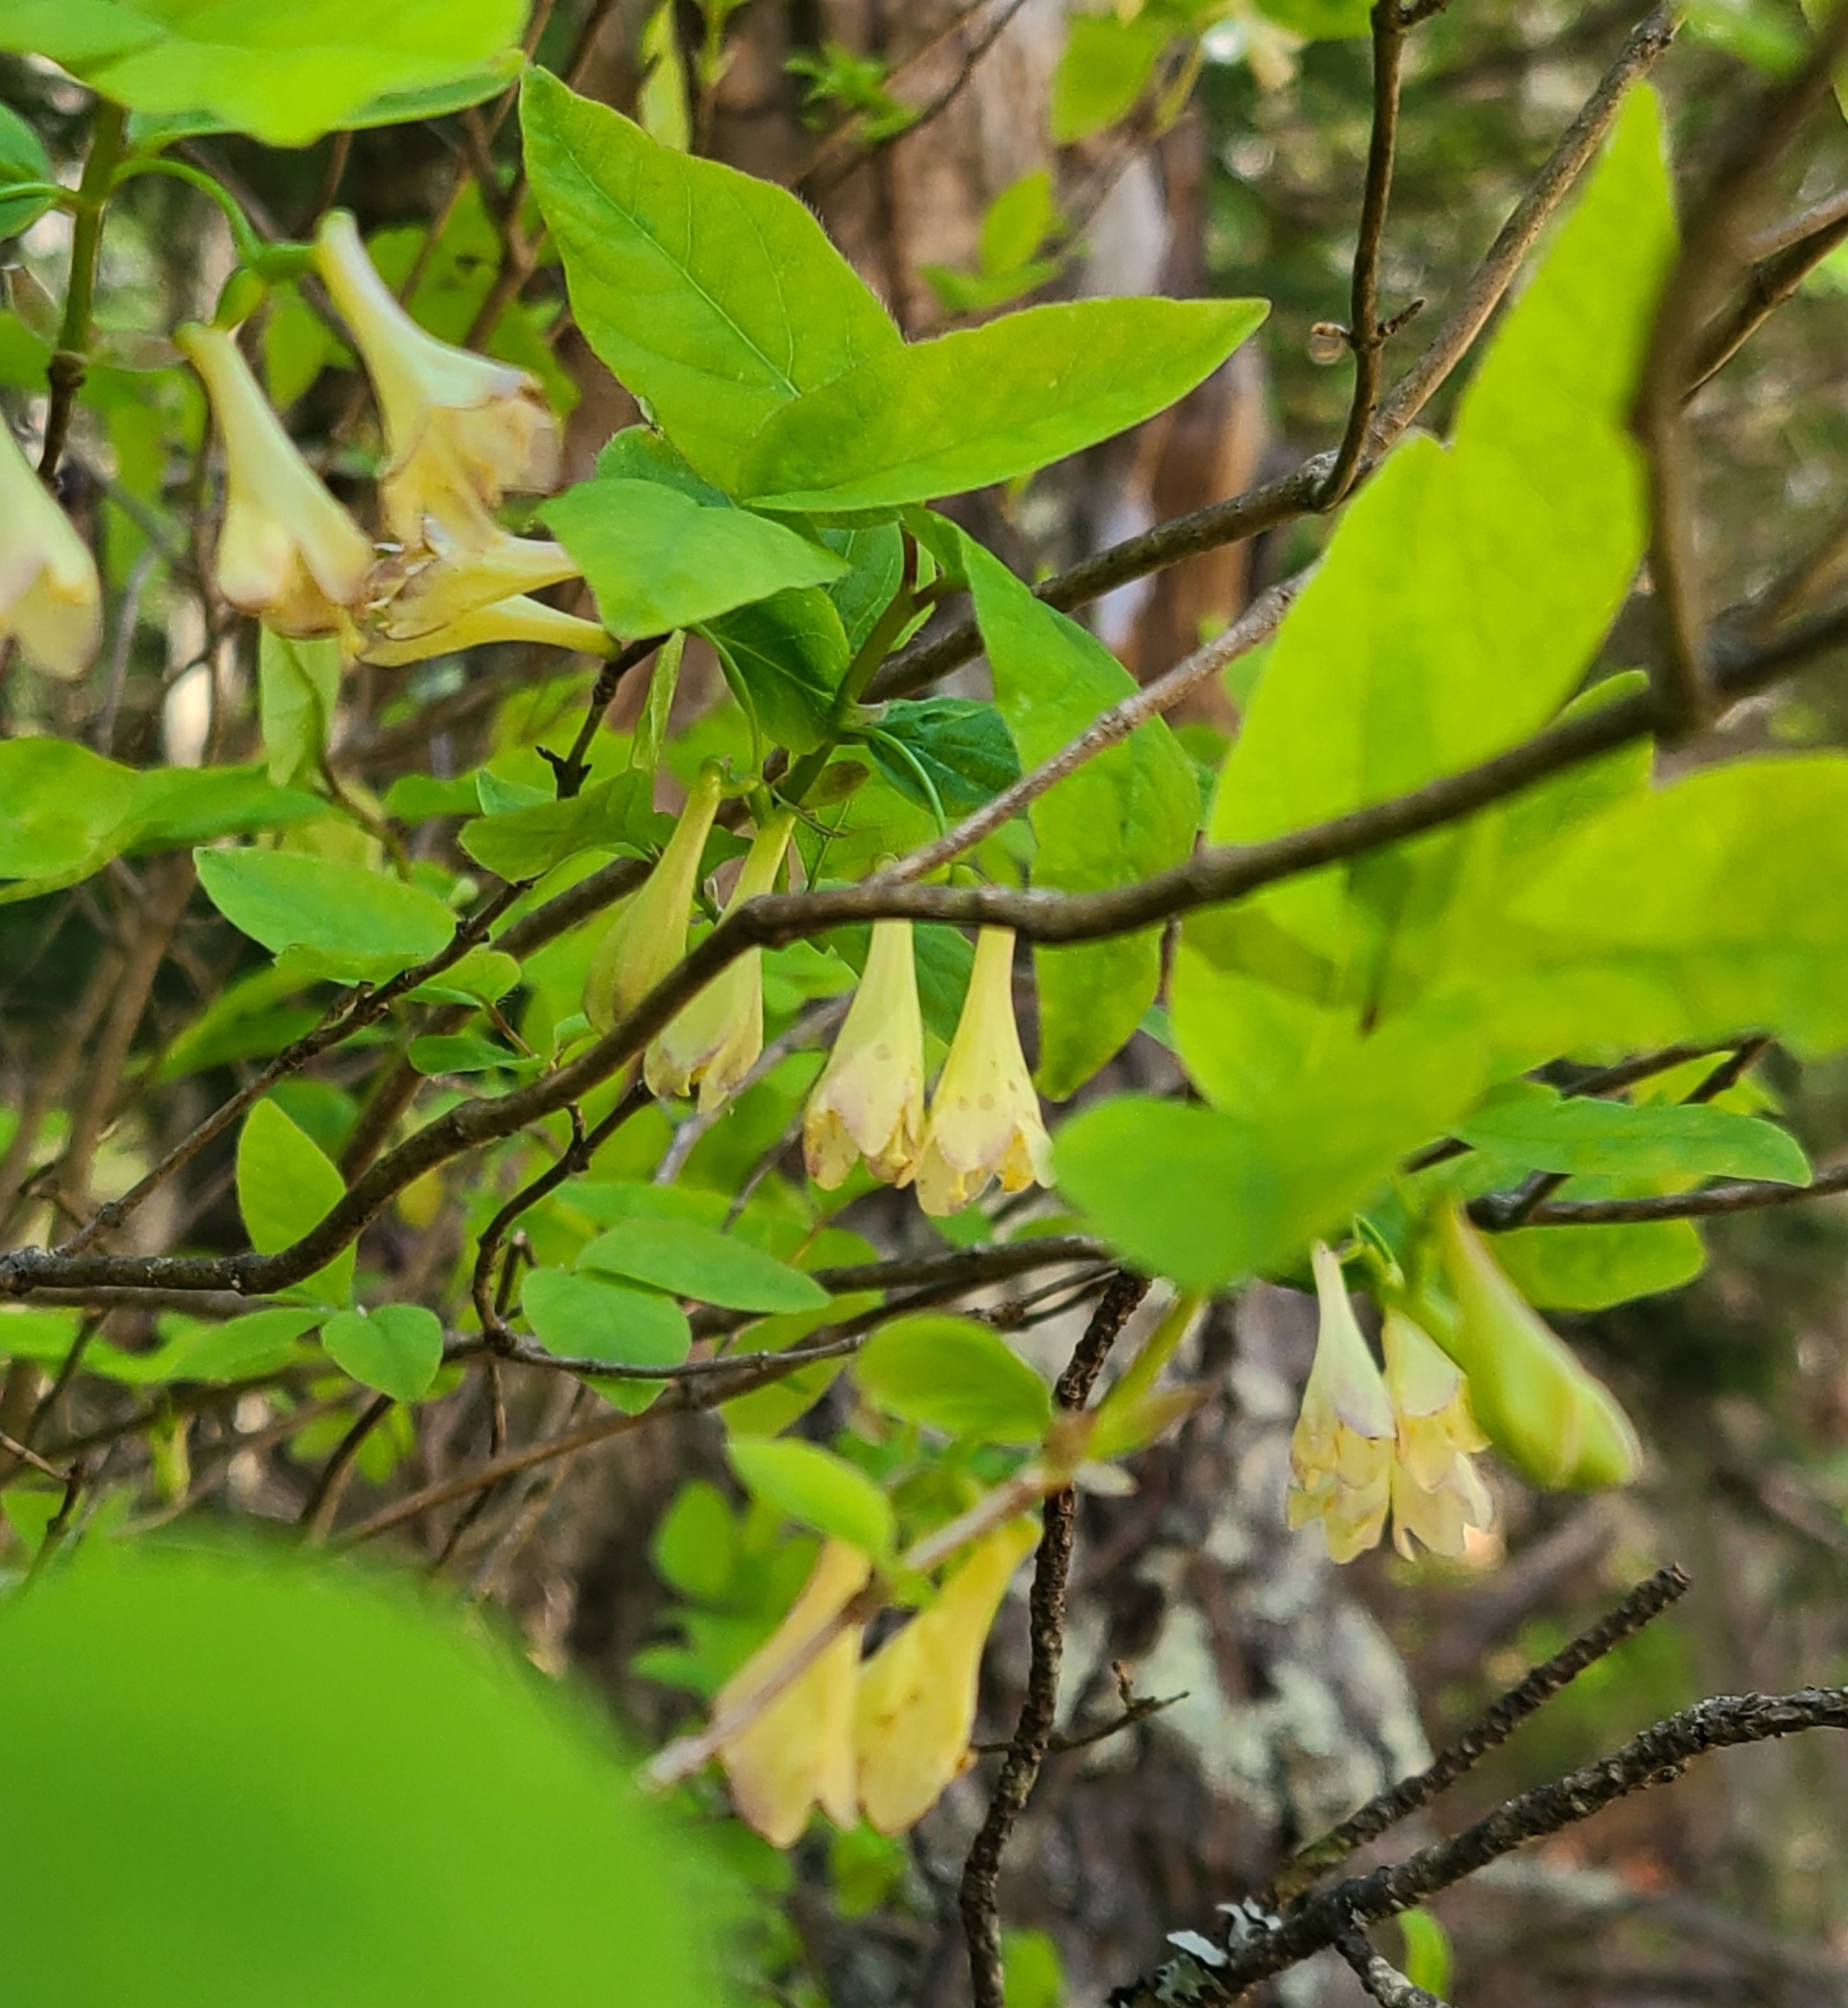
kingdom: Plantae
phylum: Tracheophyta
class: Magnoliopsida
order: Dipsacales
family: Caprifoliaceae
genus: Lonicera
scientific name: Lonicera canadensis
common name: American fly-honeysuckle
